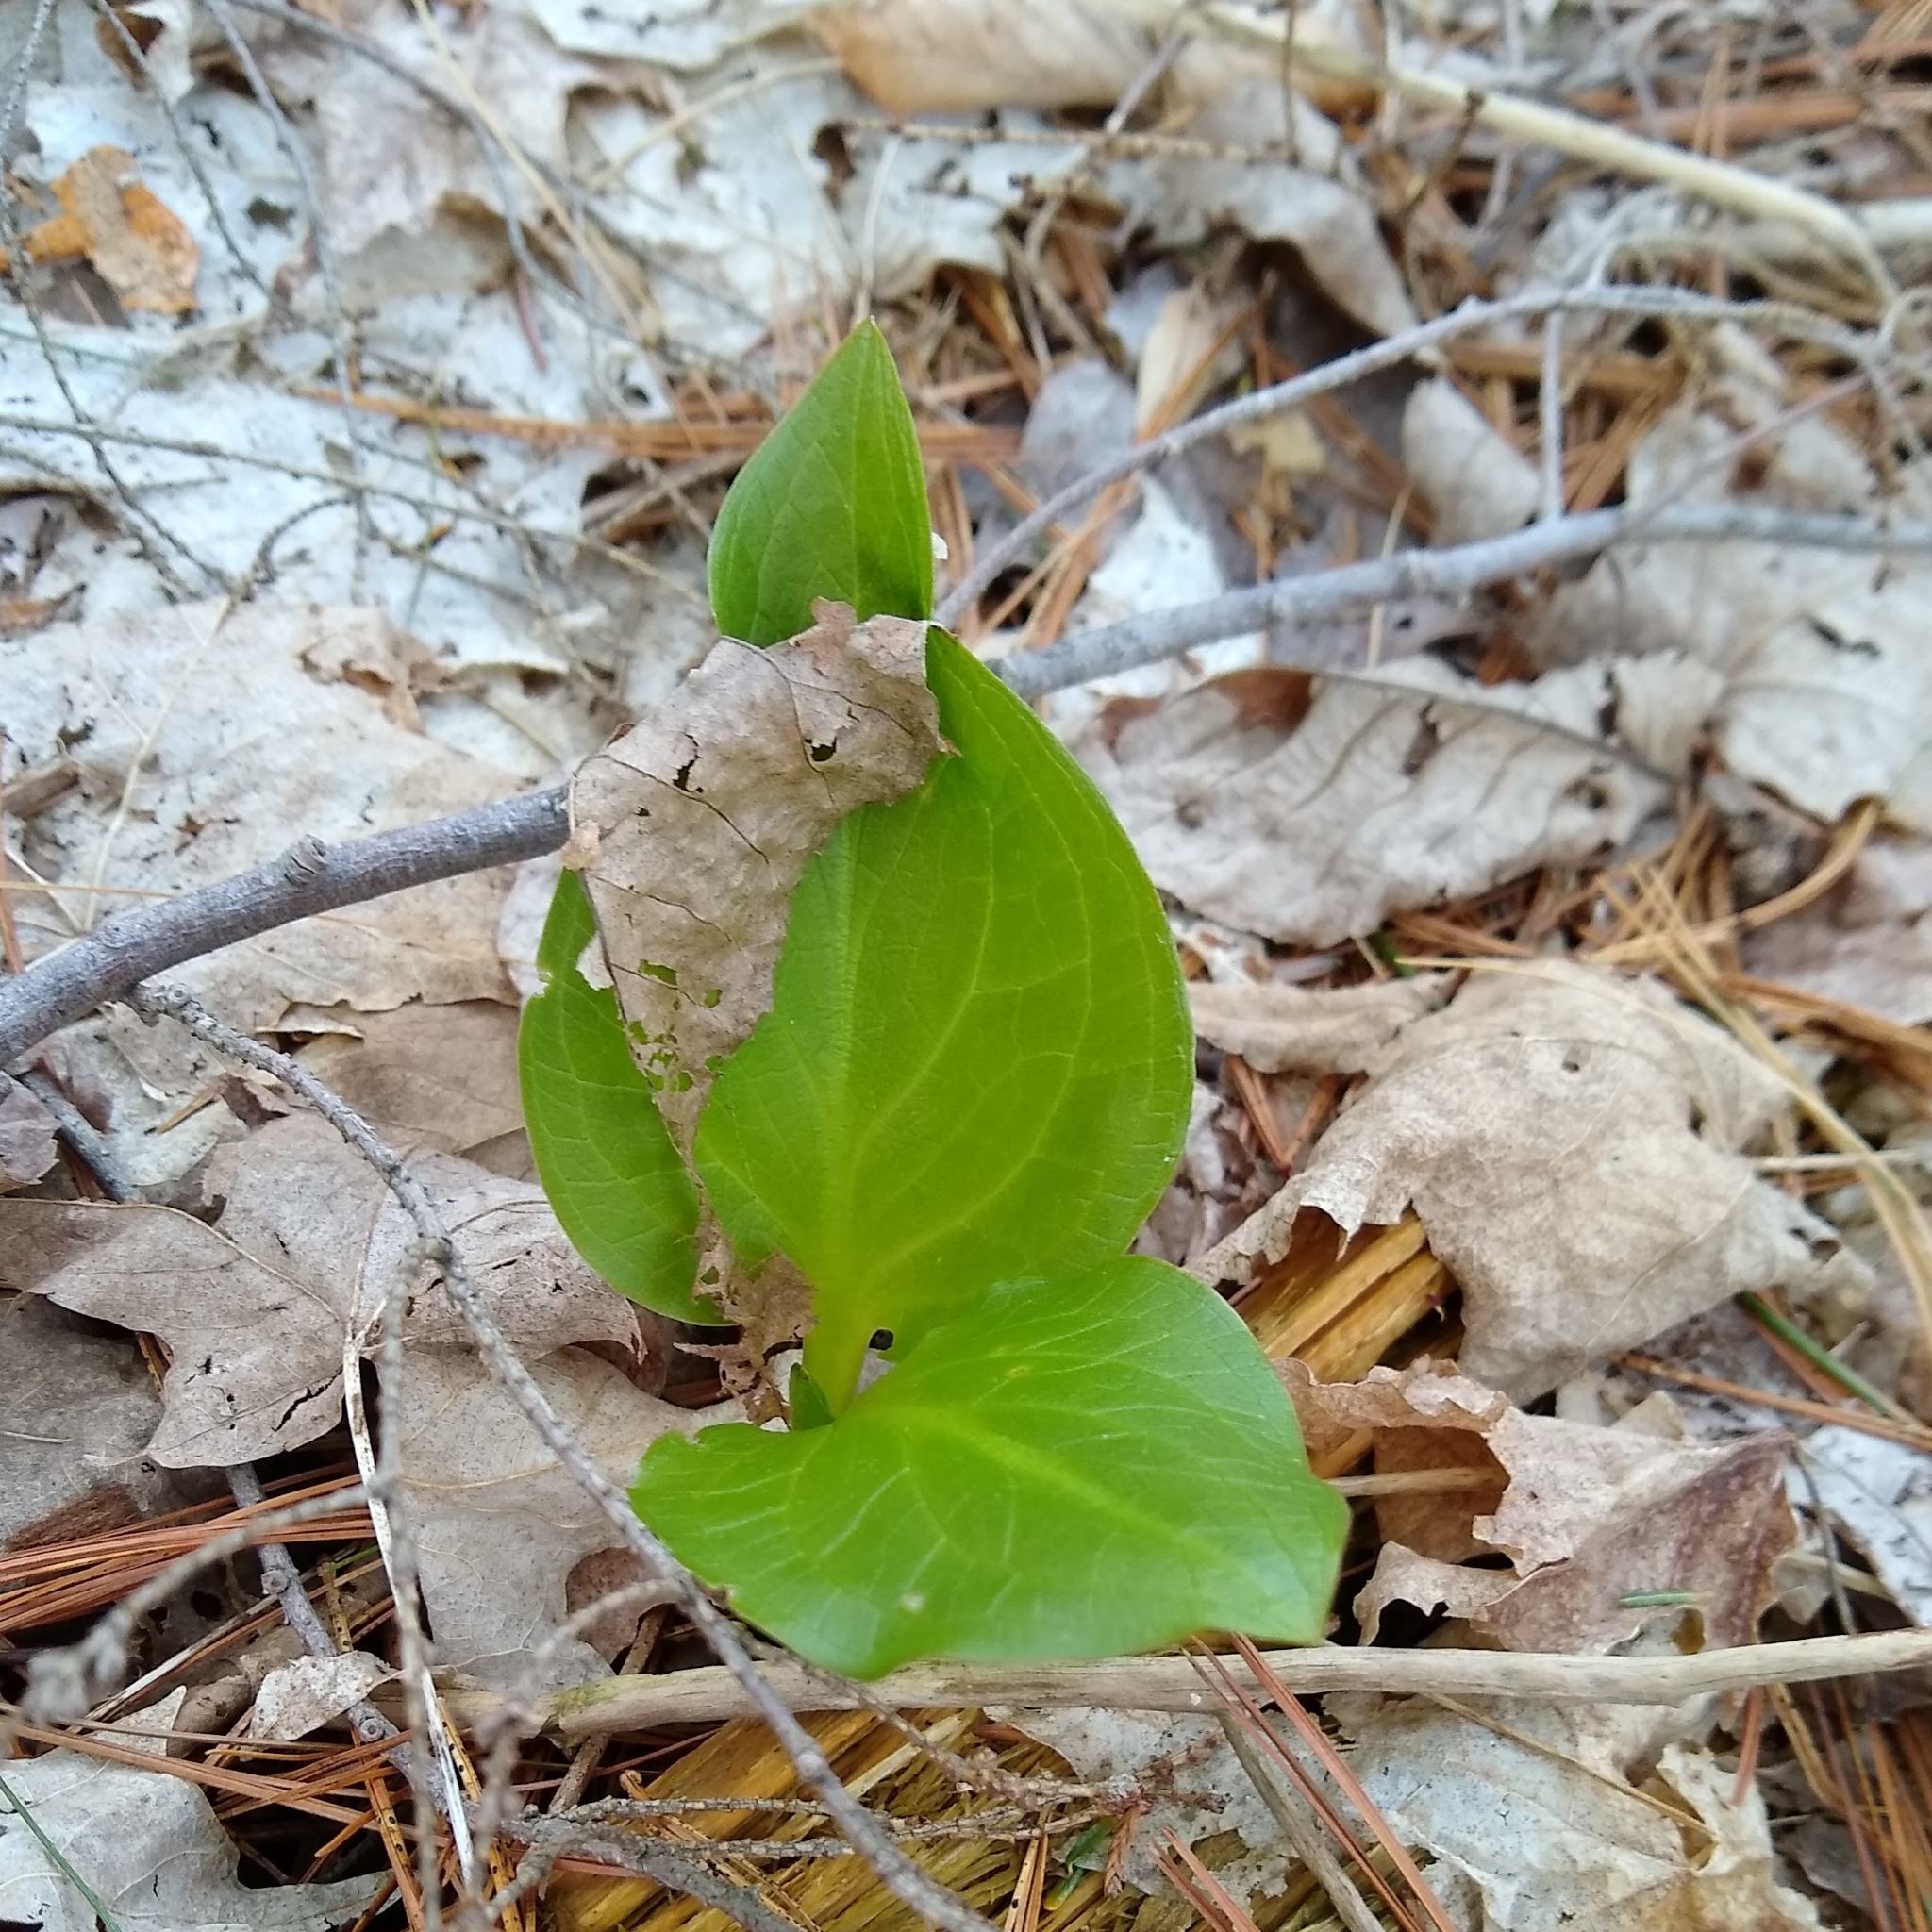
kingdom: Plantae
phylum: Tracheophyta
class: Liliopsida
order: Alismatales
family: Araceae
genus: Symplocarpus
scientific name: Symplocarpus foetidus
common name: Eastern skunk cabbage
